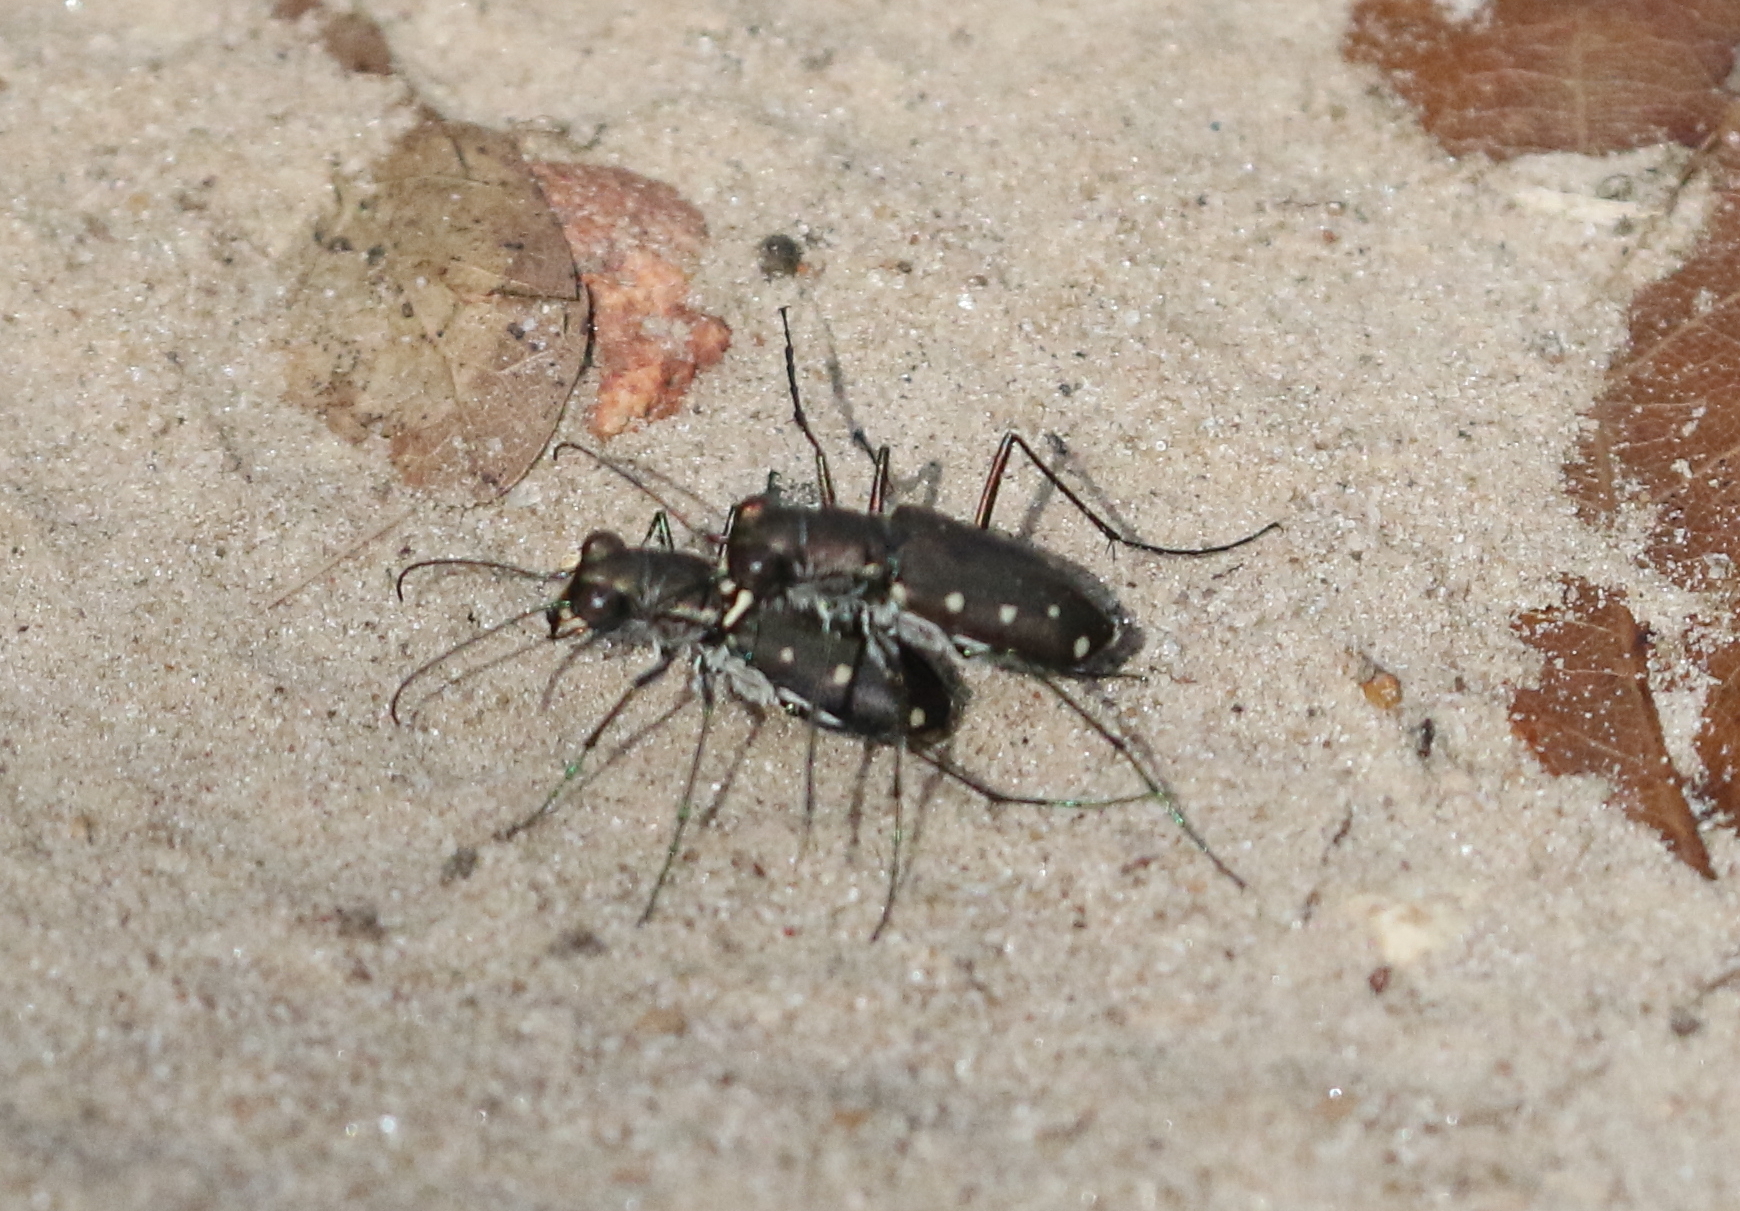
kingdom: Animalia
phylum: Arthropoda
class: Insecta
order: Coleoptera
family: Carabidae
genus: Cicindela
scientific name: Cicindela ocellata
